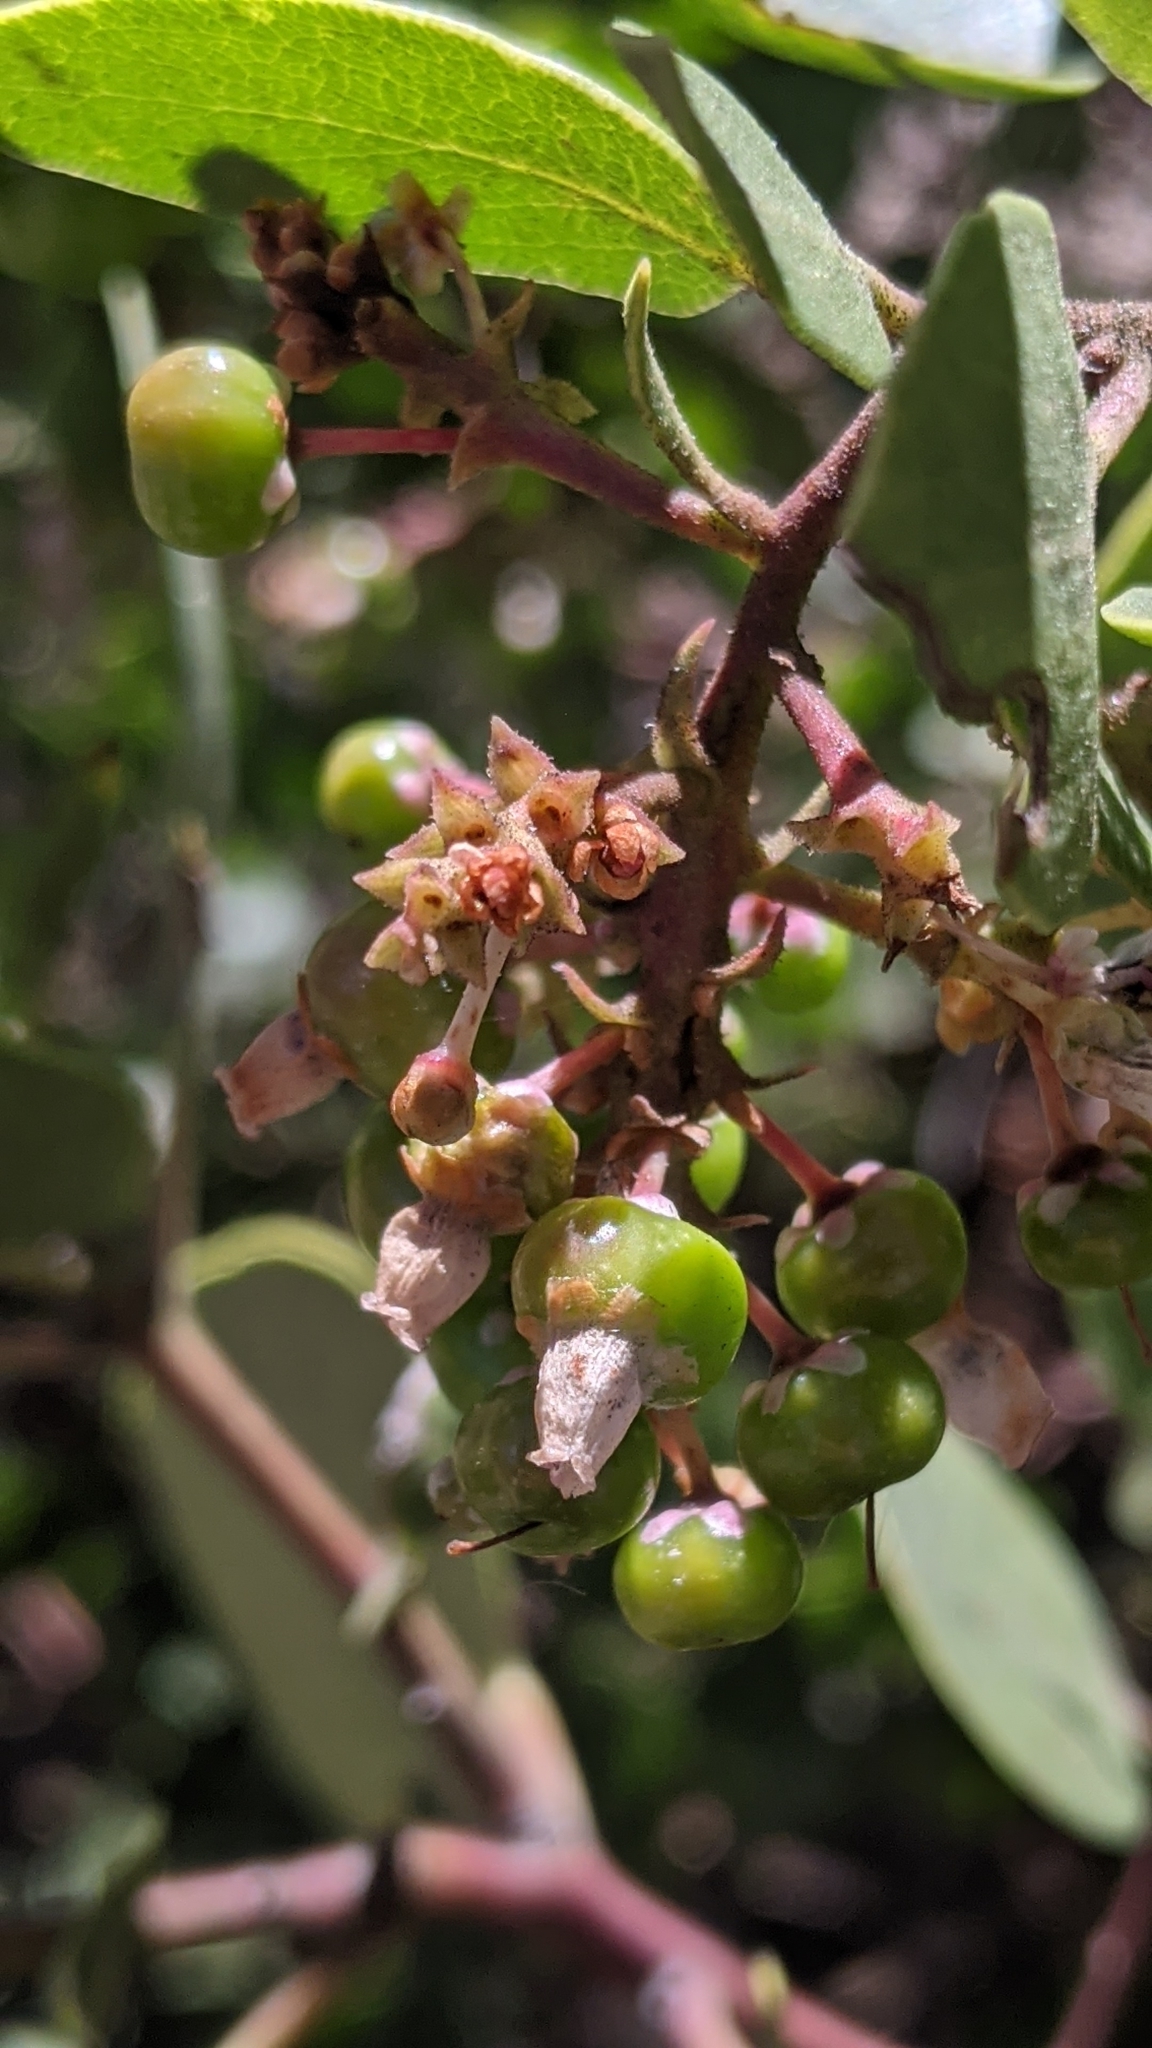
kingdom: Plantae
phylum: Tracheophyta
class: Magnoliopsida
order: Ericales
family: Ericaceae
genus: Arctostaphylos
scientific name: Arctostaphylos patula
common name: Green-leaf manzanita
